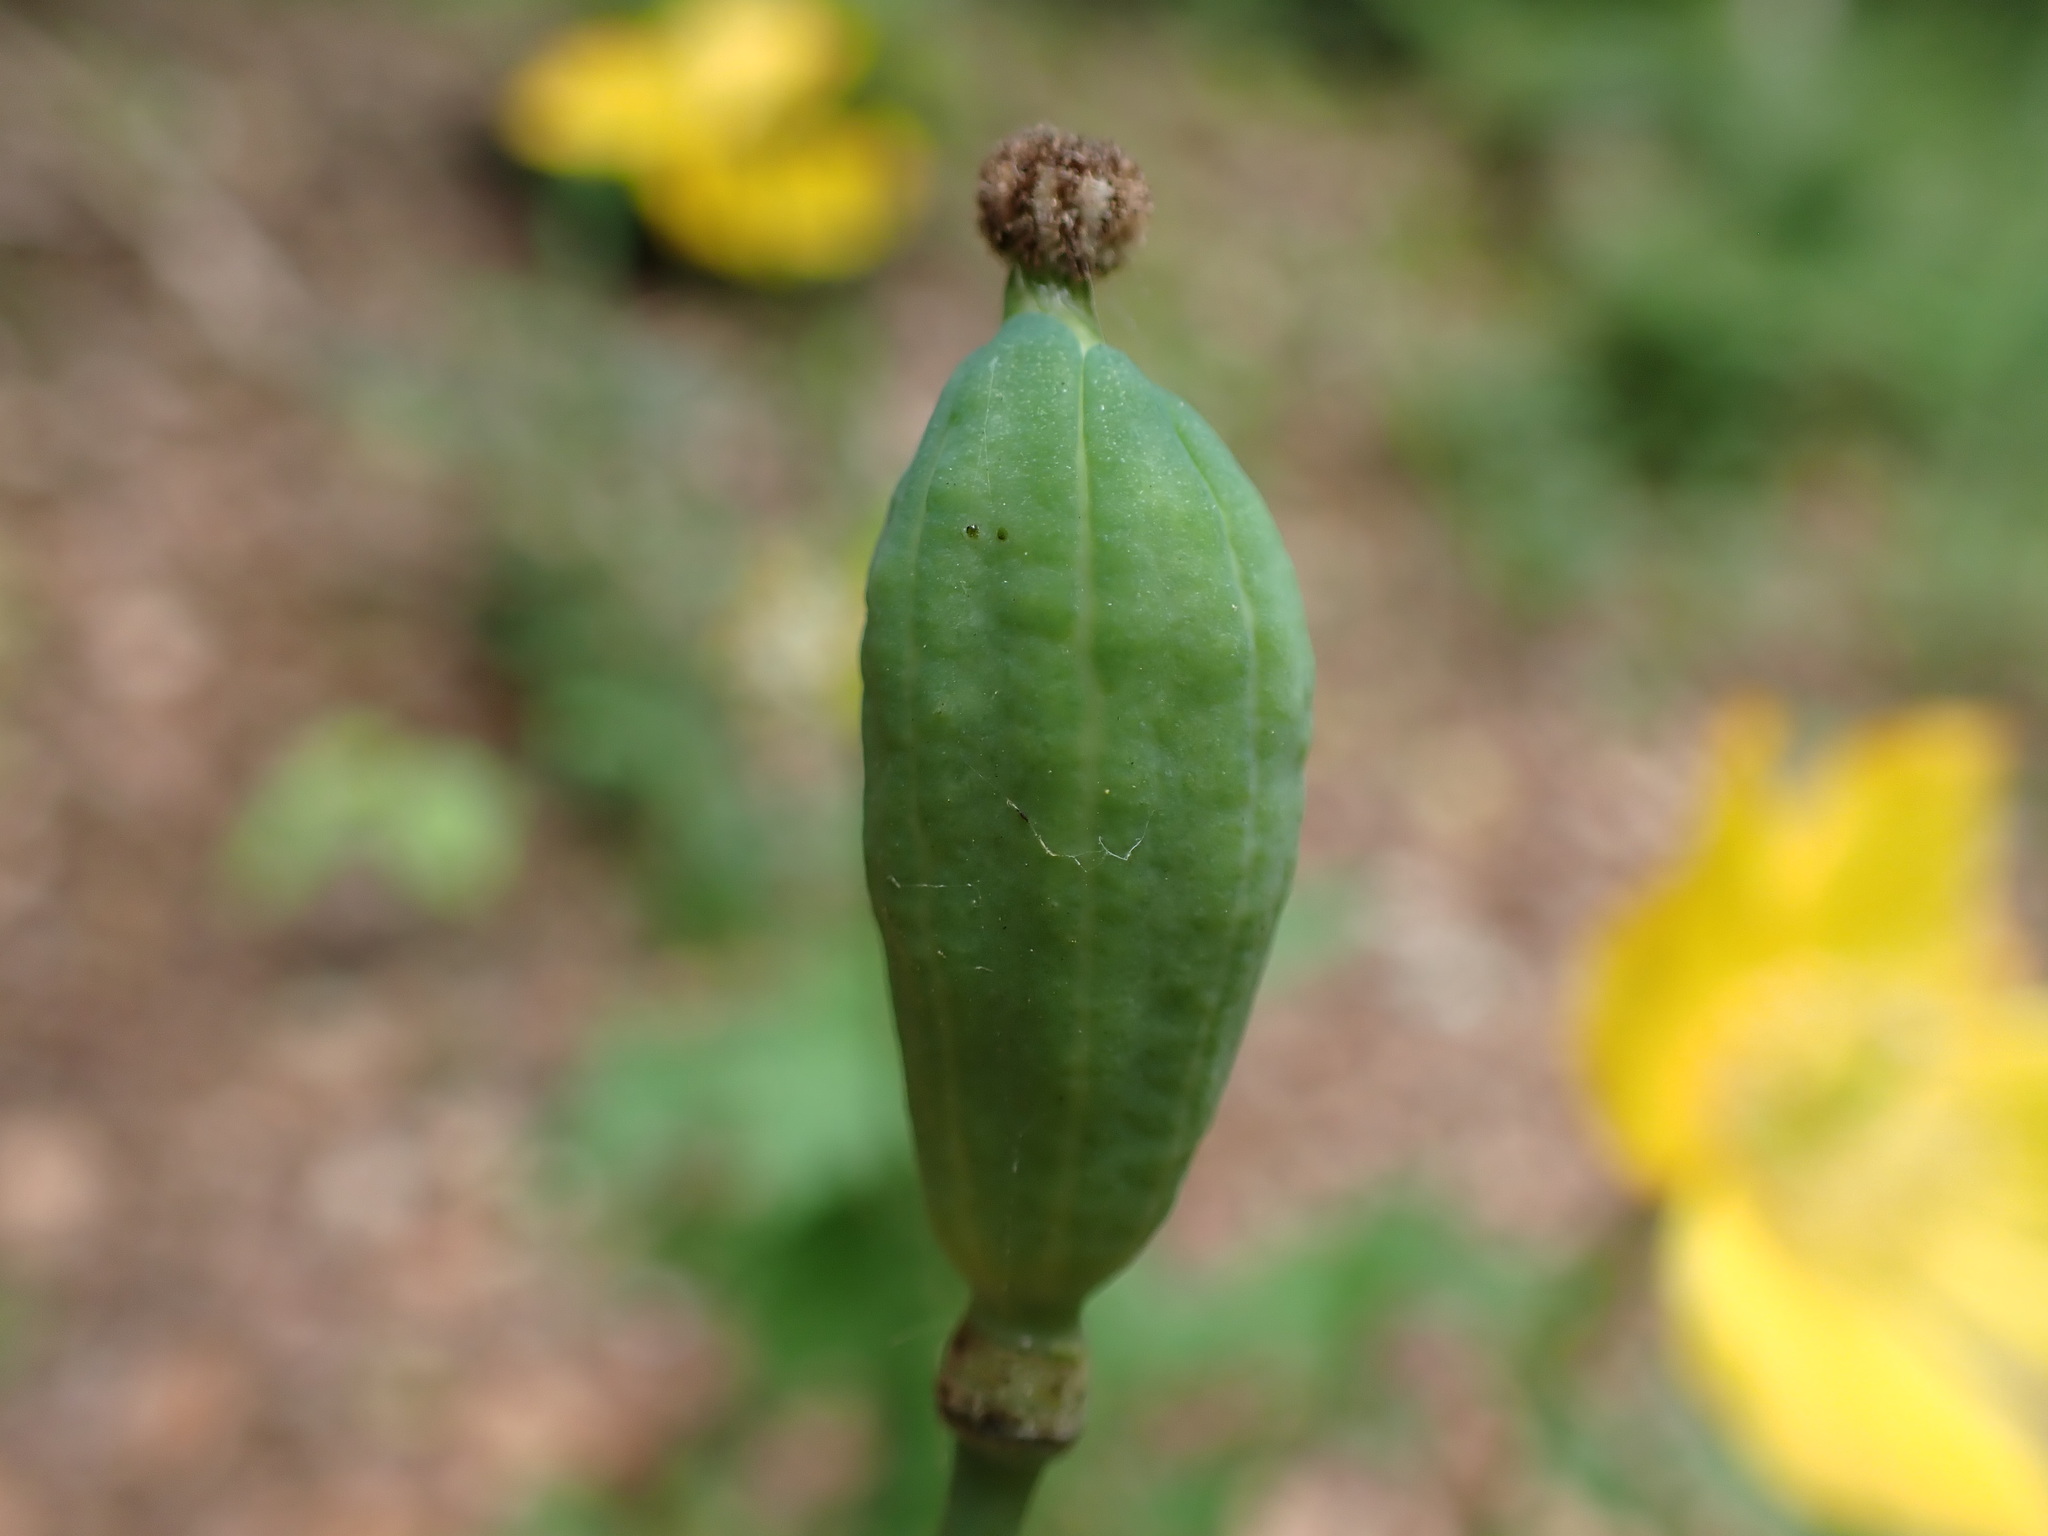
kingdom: Plantae
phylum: Tracheophyta
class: Magnoliopsida
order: Ranunculales
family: Papaveraceae
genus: Papaver
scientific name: Papaver cambricum
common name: Poppy
